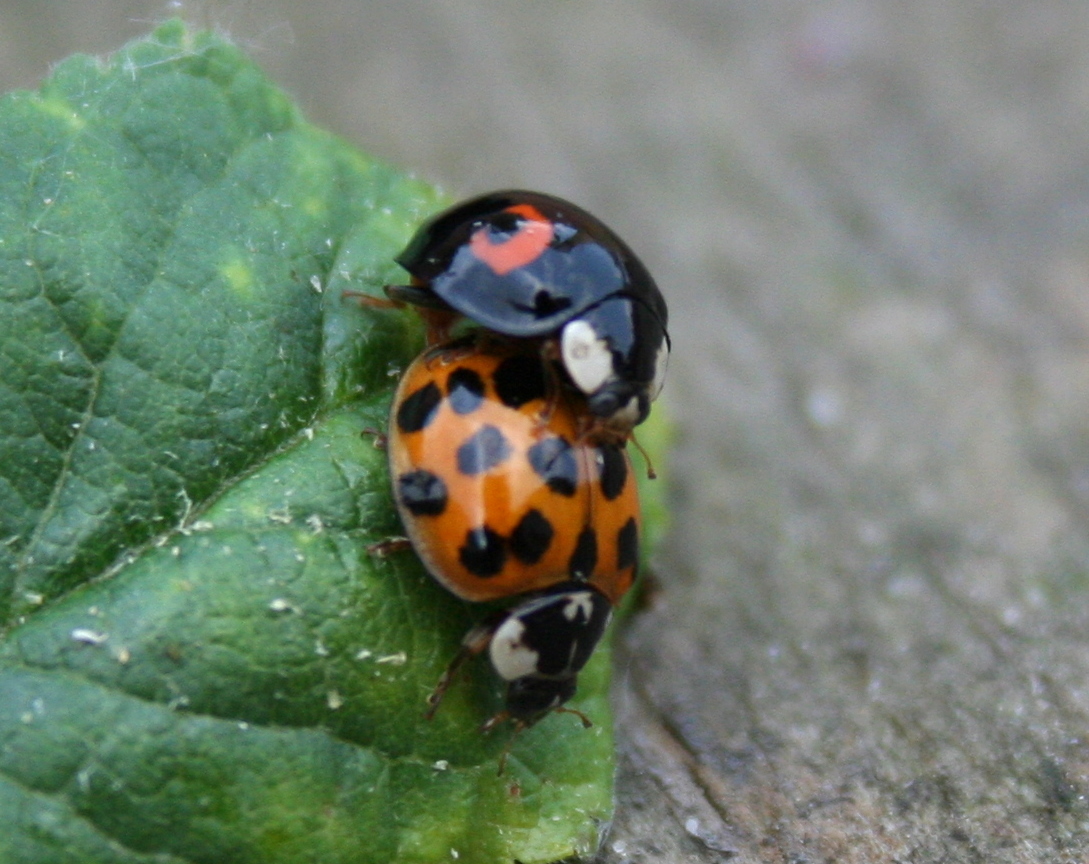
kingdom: Animalia
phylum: Arthropoda
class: Insecta
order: Coleoptera
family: Coccinellidae
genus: Harmonia
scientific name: Harmonia axyridis
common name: Harlequin ladybird
